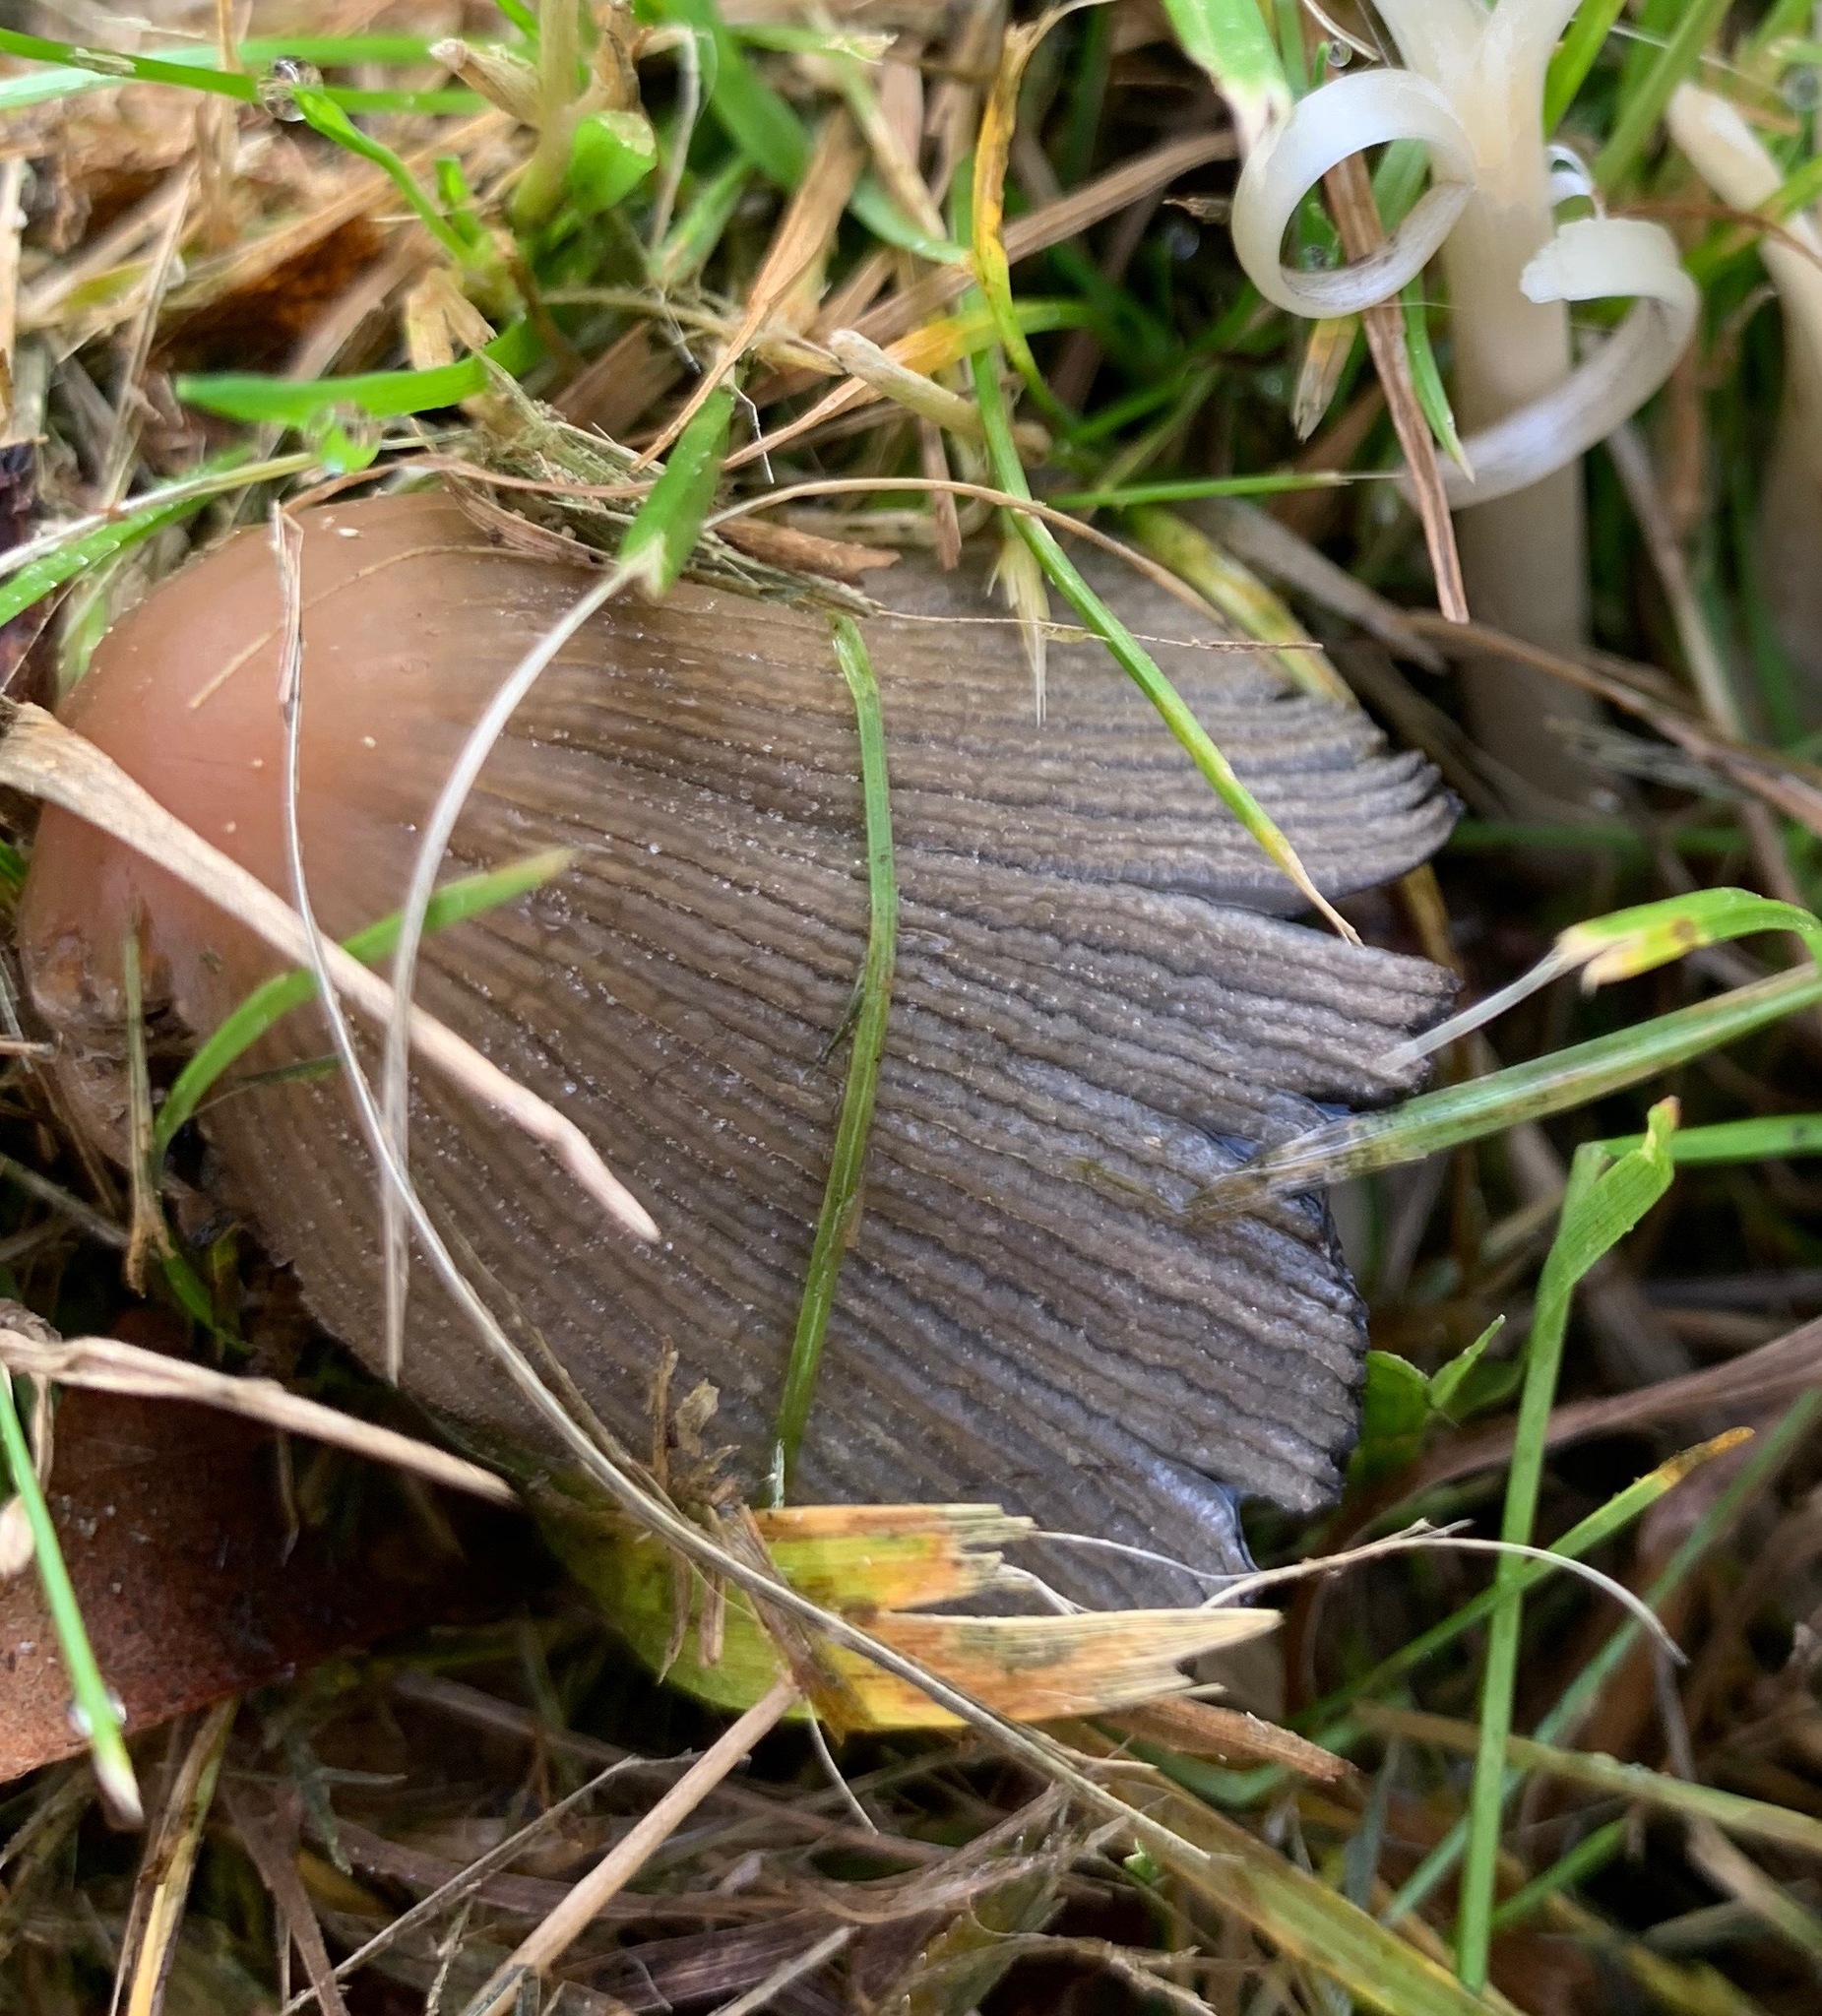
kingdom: Fungi
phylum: Basidiomycota
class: Agaricomycetes
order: Agaricales
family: Psathyrellaceae
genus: Coprinellus
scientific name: Coprinellus micaceus
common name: Glistening ink-cap
